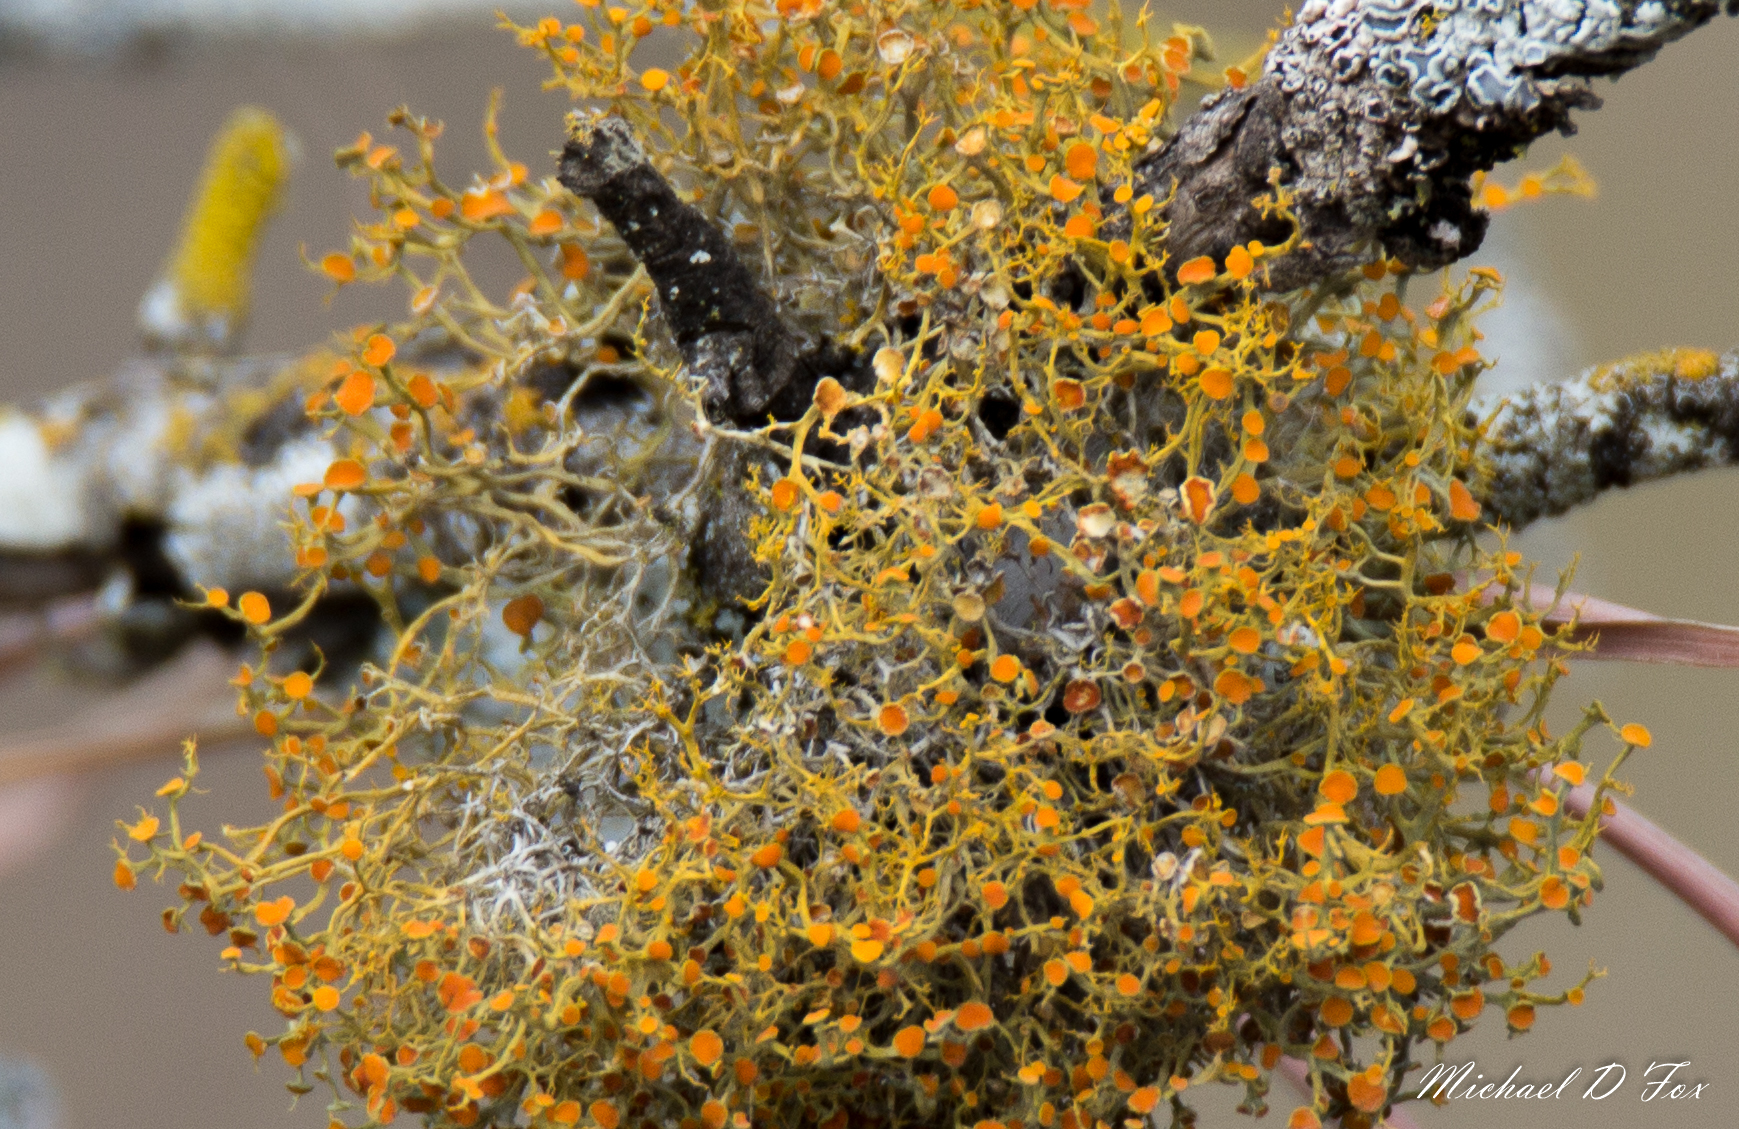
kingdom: Fungi
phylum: Ascomycota
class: Lecanoromycetes
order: Teloschistales
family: Teloschistaceae
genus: Teloschistes
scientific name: Teloschistes exilis
